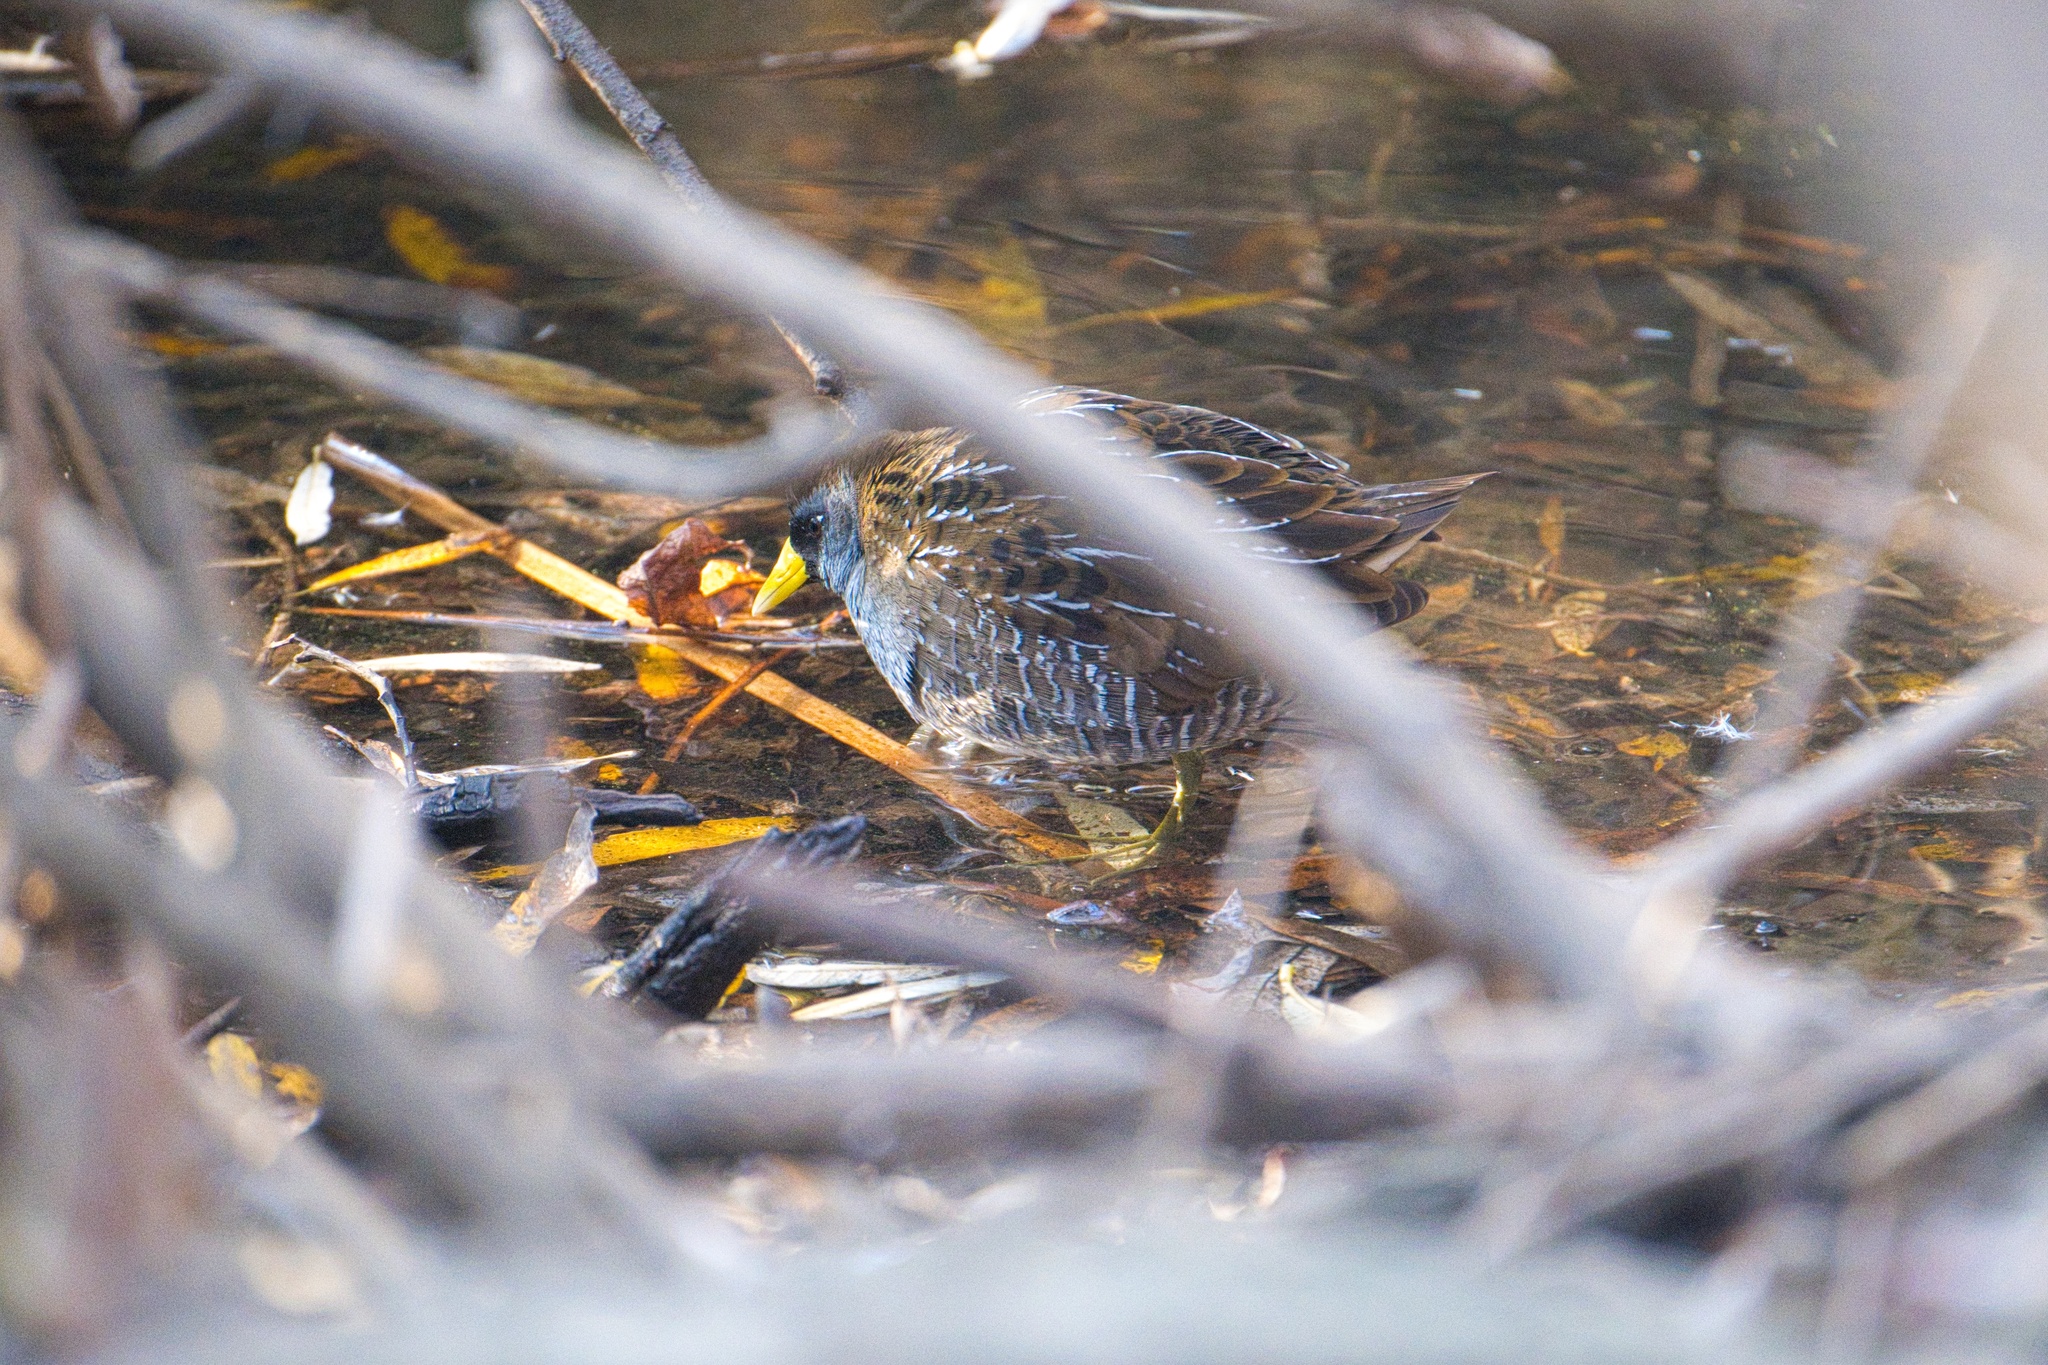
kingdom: Animalia
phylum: Chordata
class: Aves
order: Gruiformes
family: Rallidae
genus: Porzana
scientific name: Porzana carolina
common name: Sora
